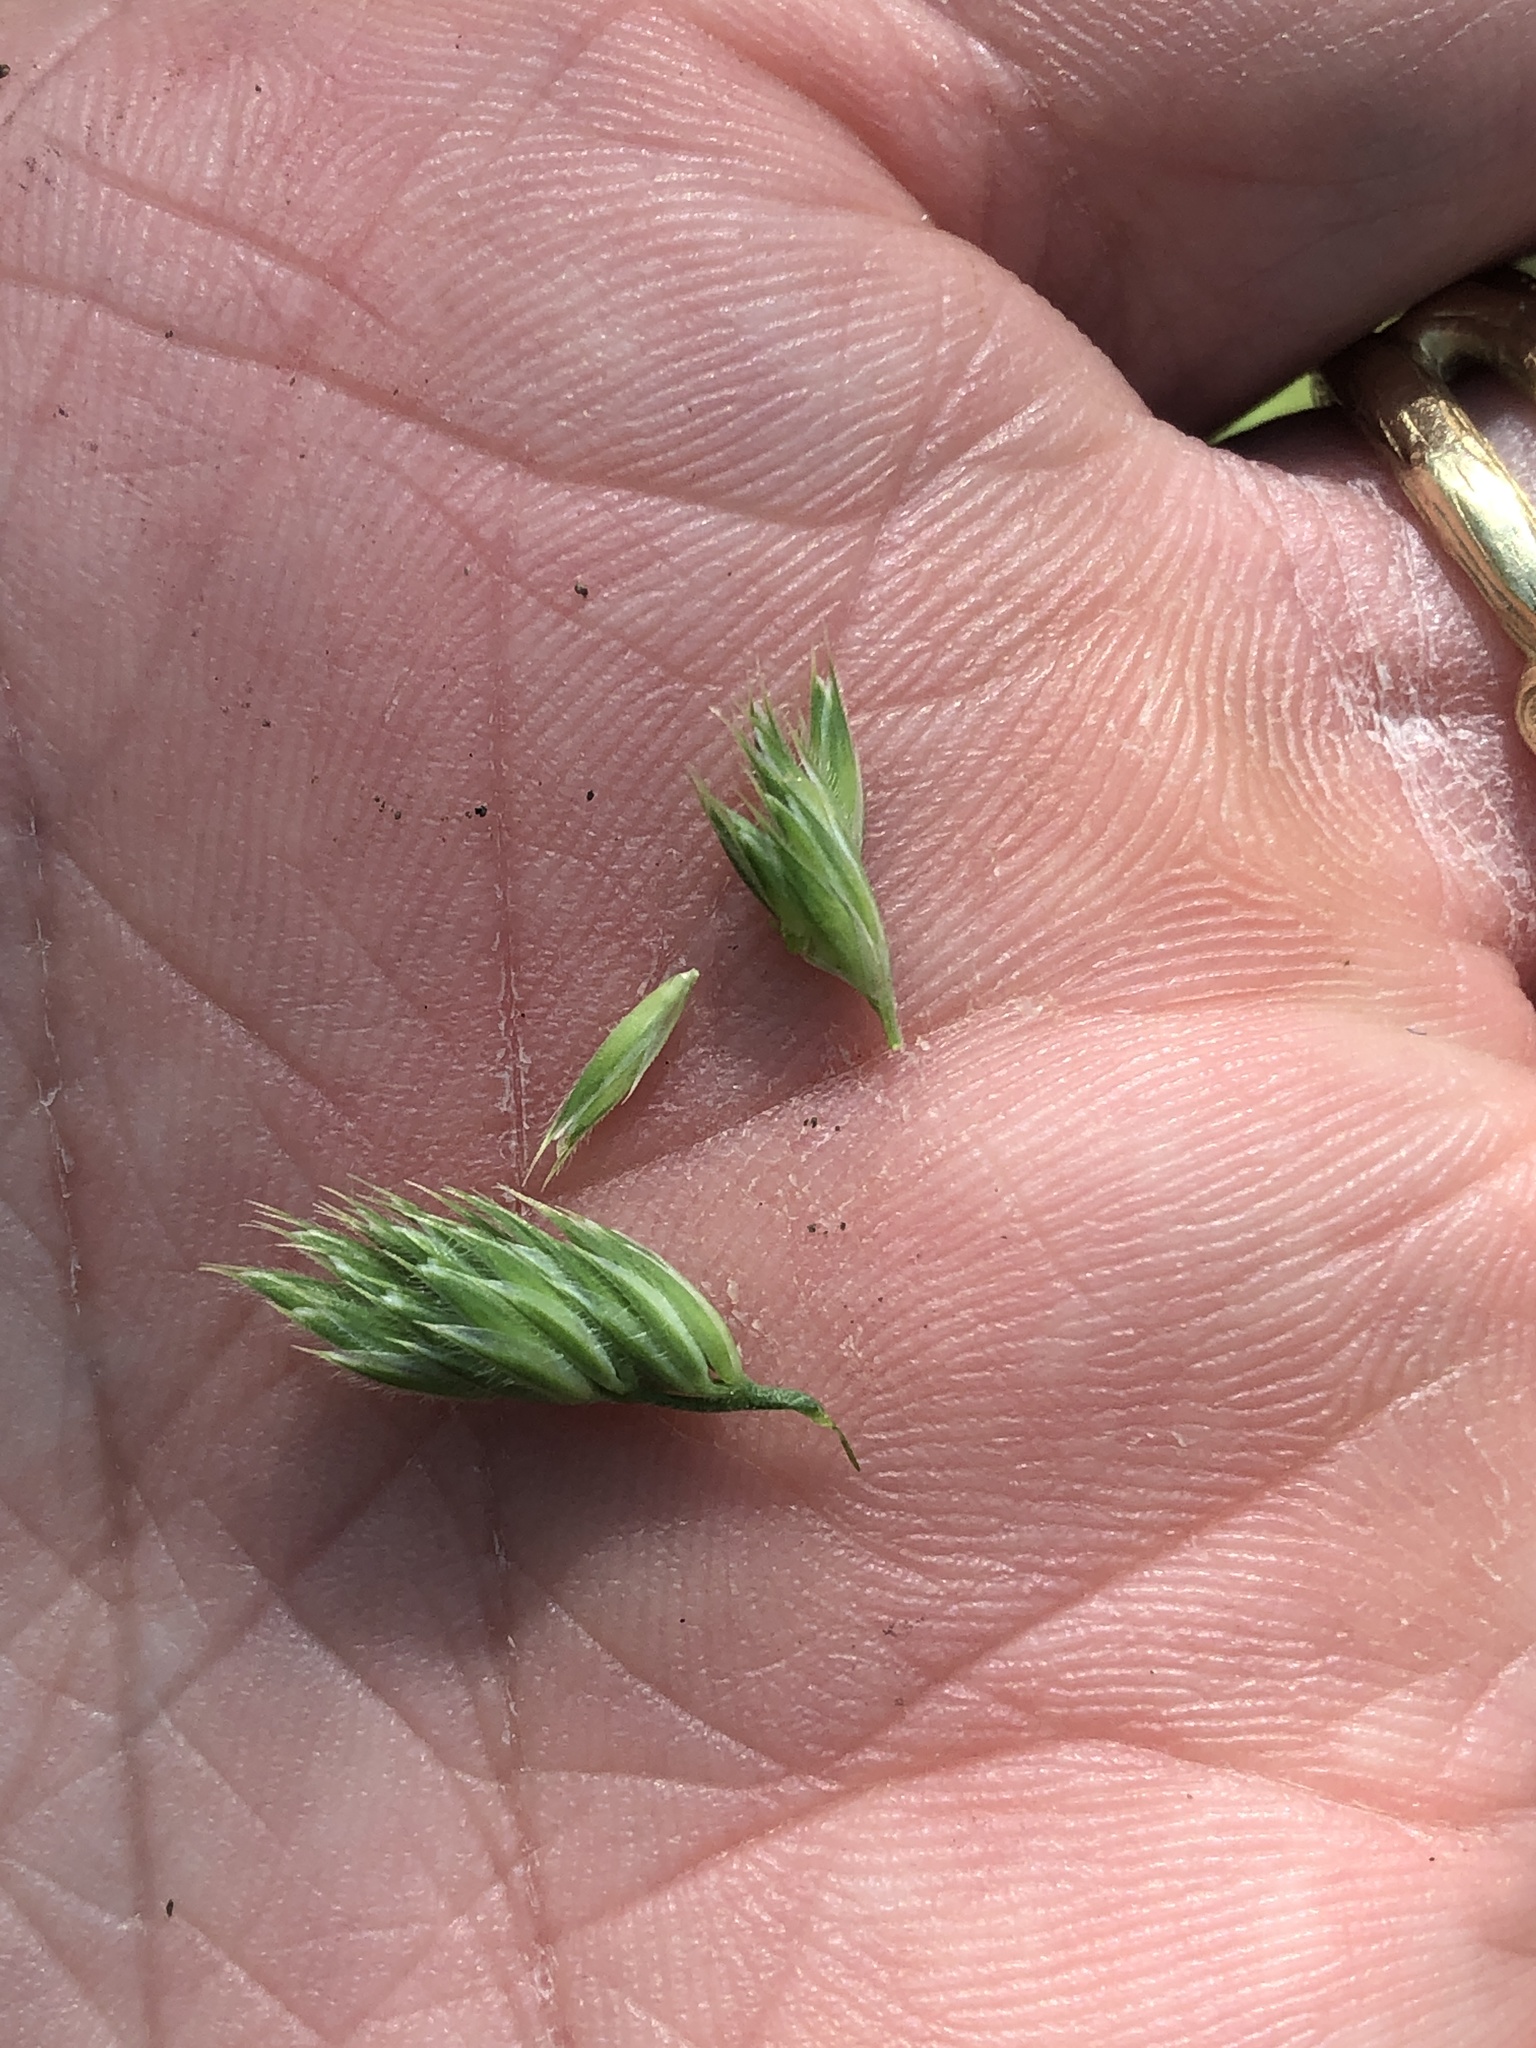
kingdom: Plantae
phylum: Tracheophyta
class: Liliopsida
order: Poales
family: Poaceae
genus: Dactylis
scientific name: Dactylis glomerata
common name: Orchardgrass
